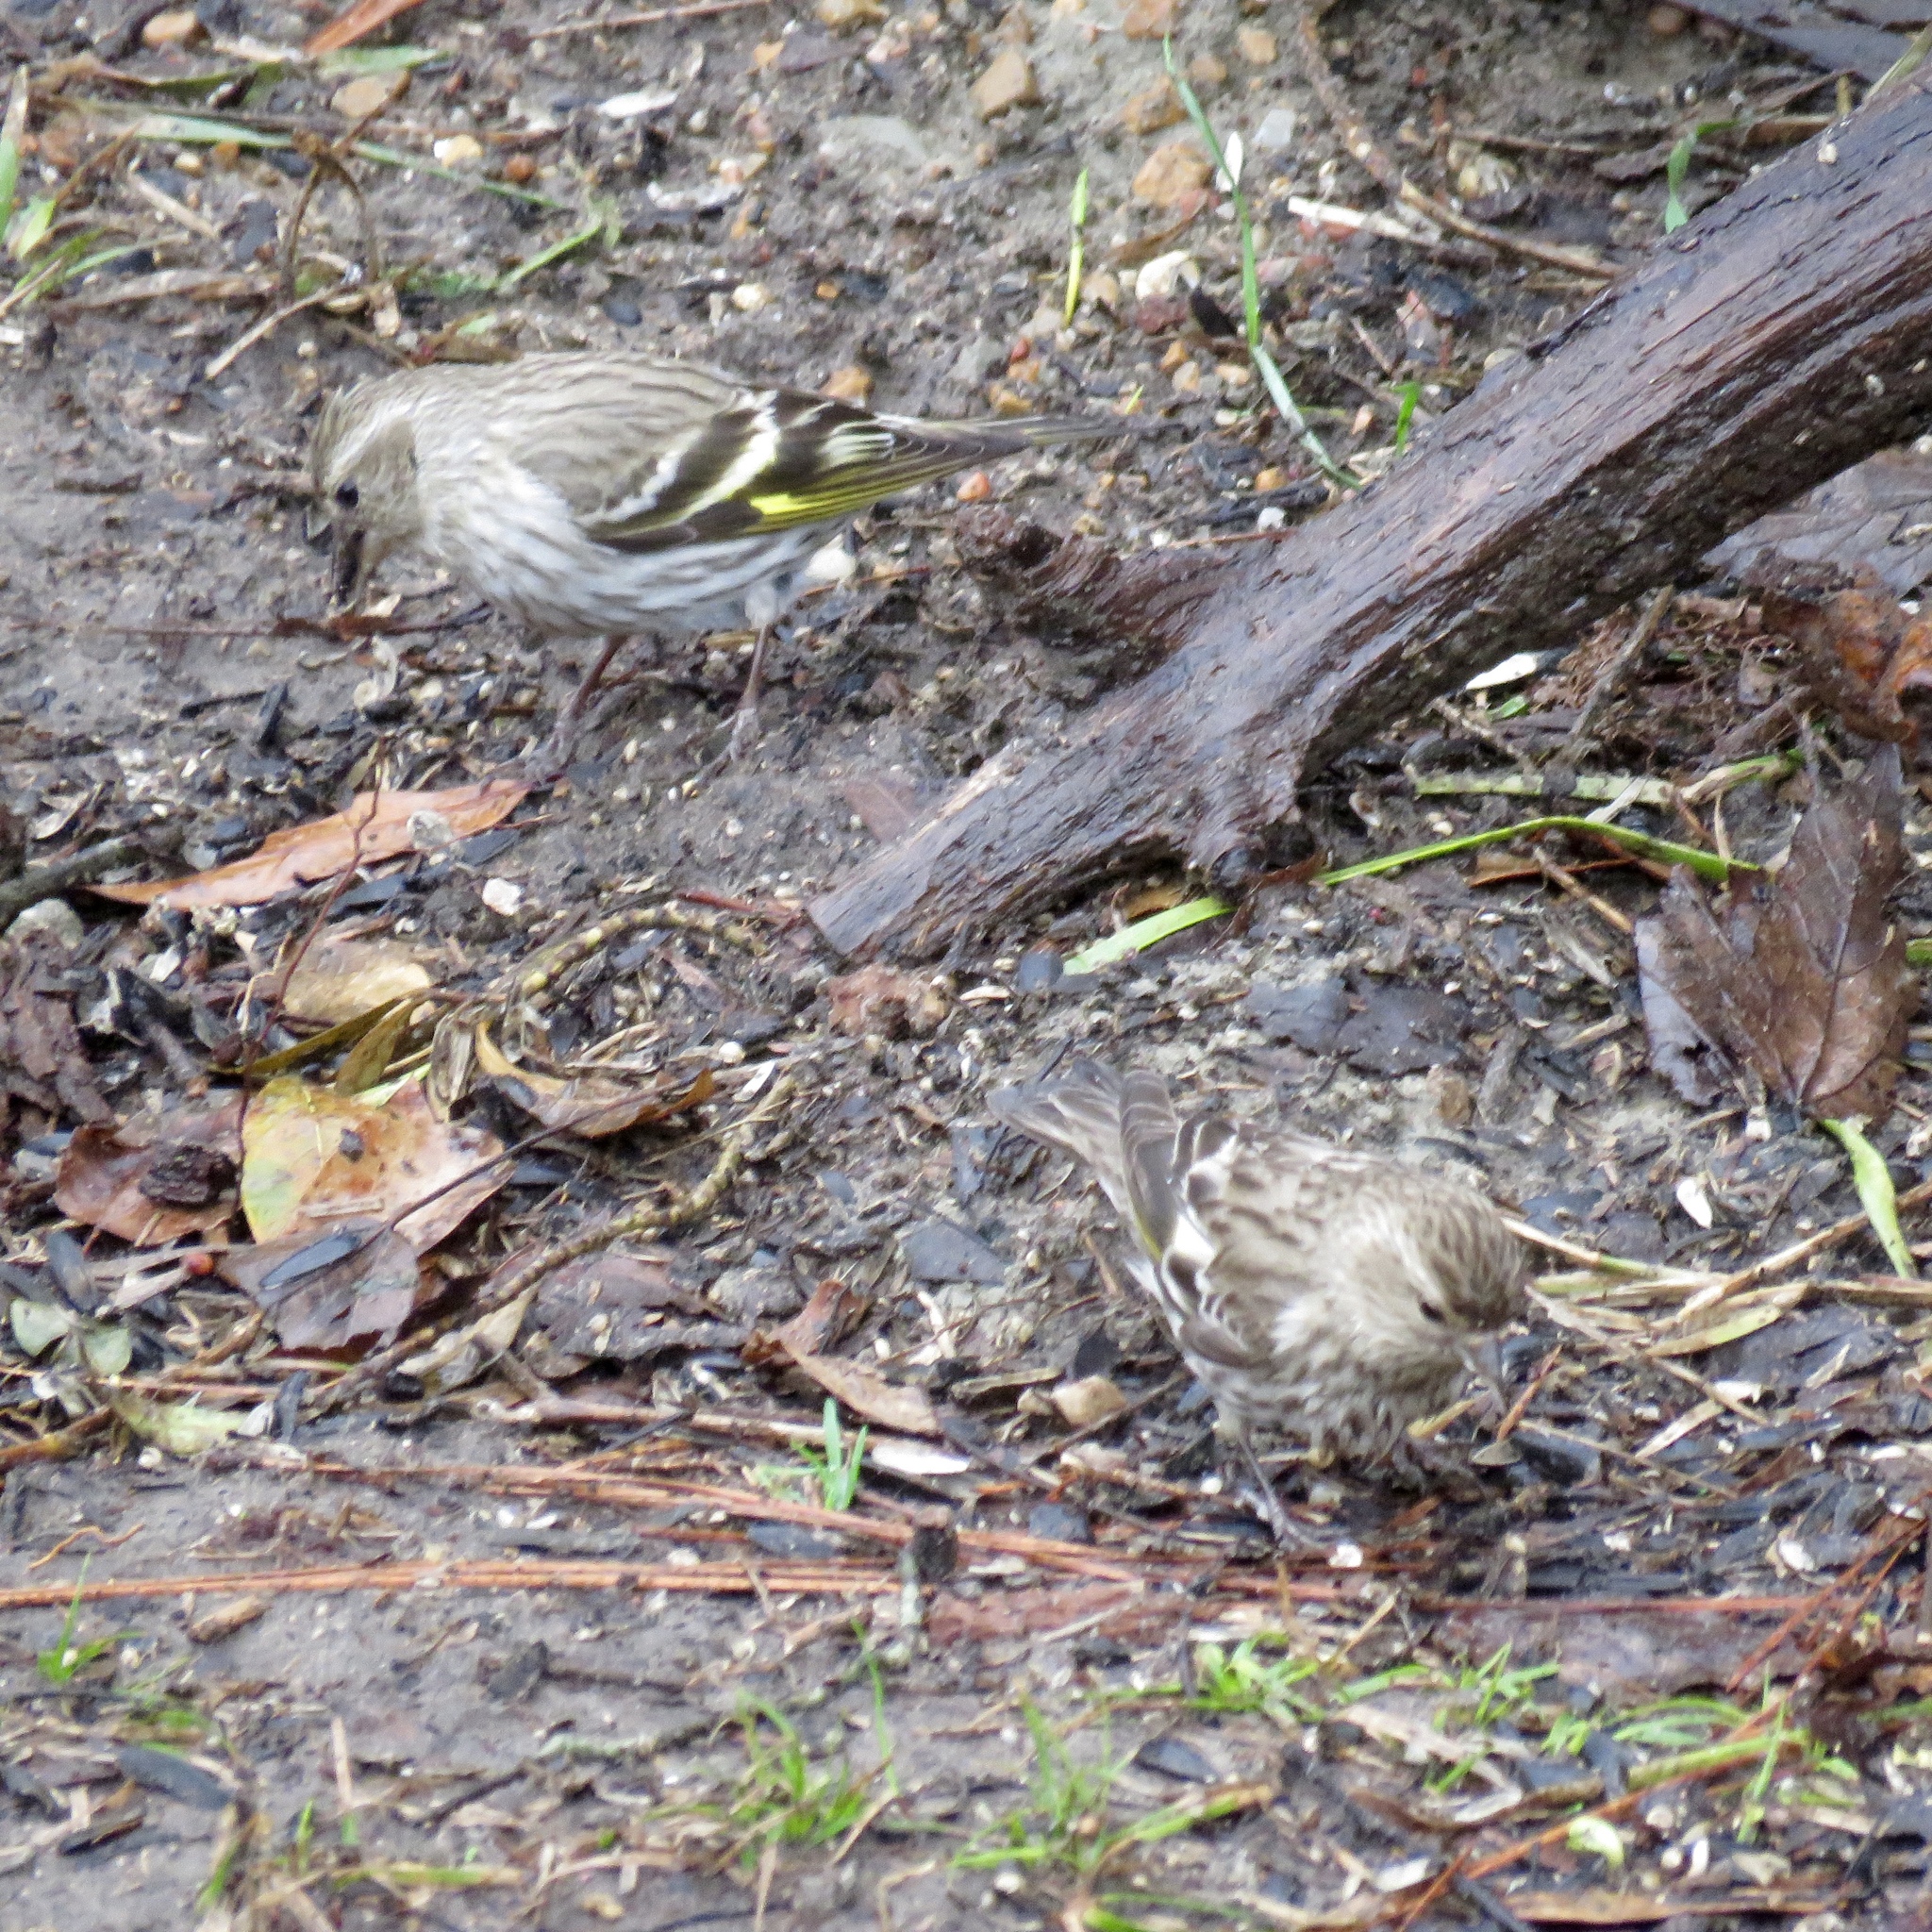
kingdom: Animalia
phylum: Chordata
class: Aves
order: Passeriformes
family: Fringillidae
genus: Spinus
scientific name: Spinus pinus
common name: Pine siskin
